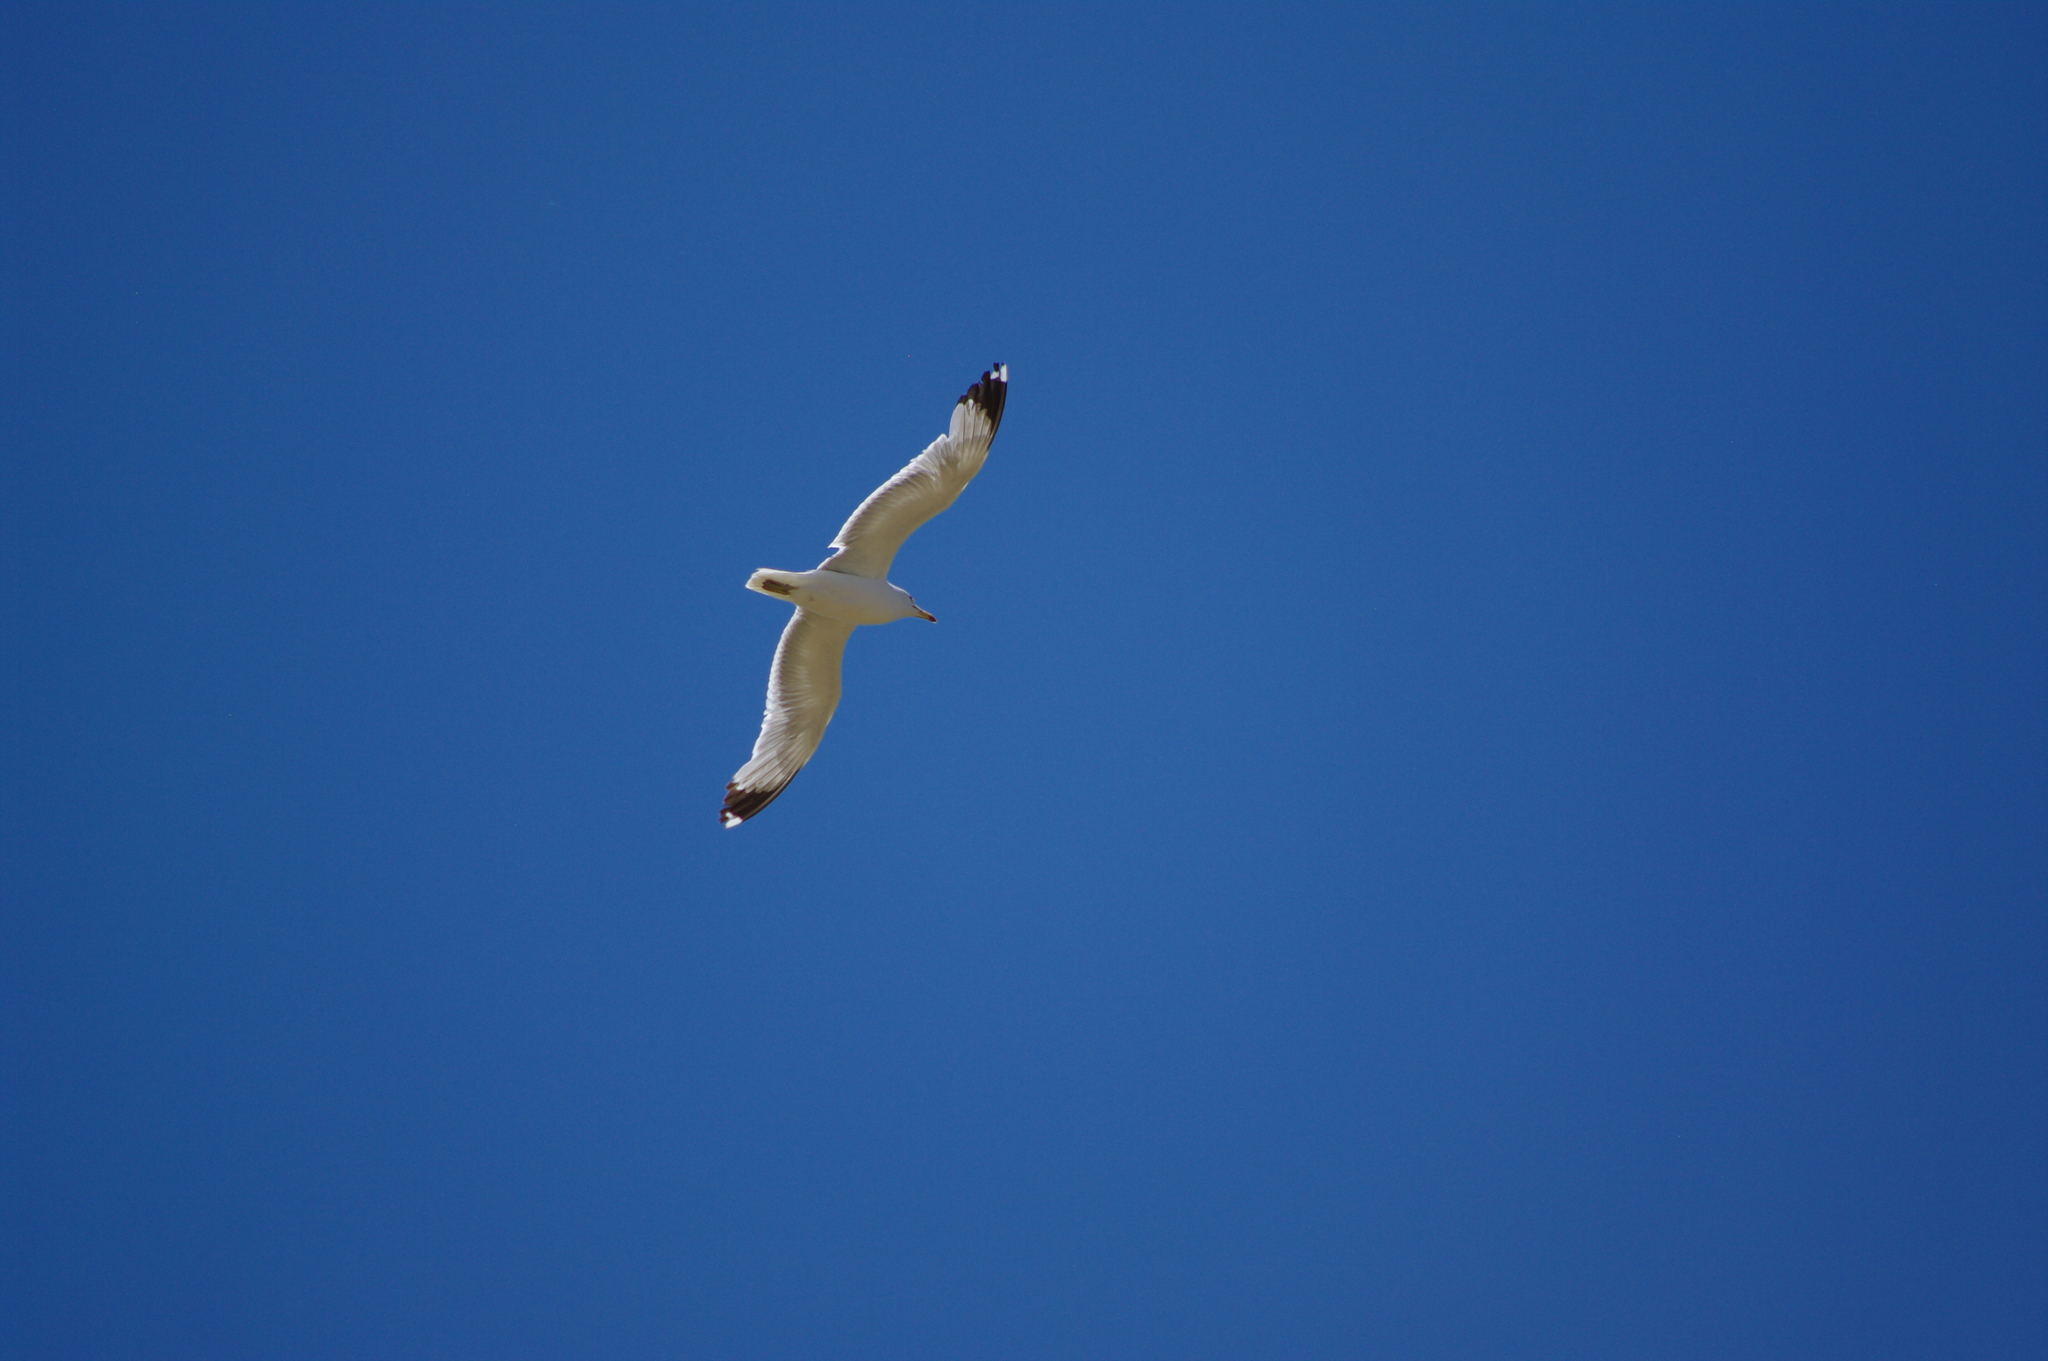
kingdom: Animalia
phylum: Chordata
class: Aves
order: Charadriiformes
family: Laridae
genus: Larus
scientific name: Larus californicus
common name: California gull
